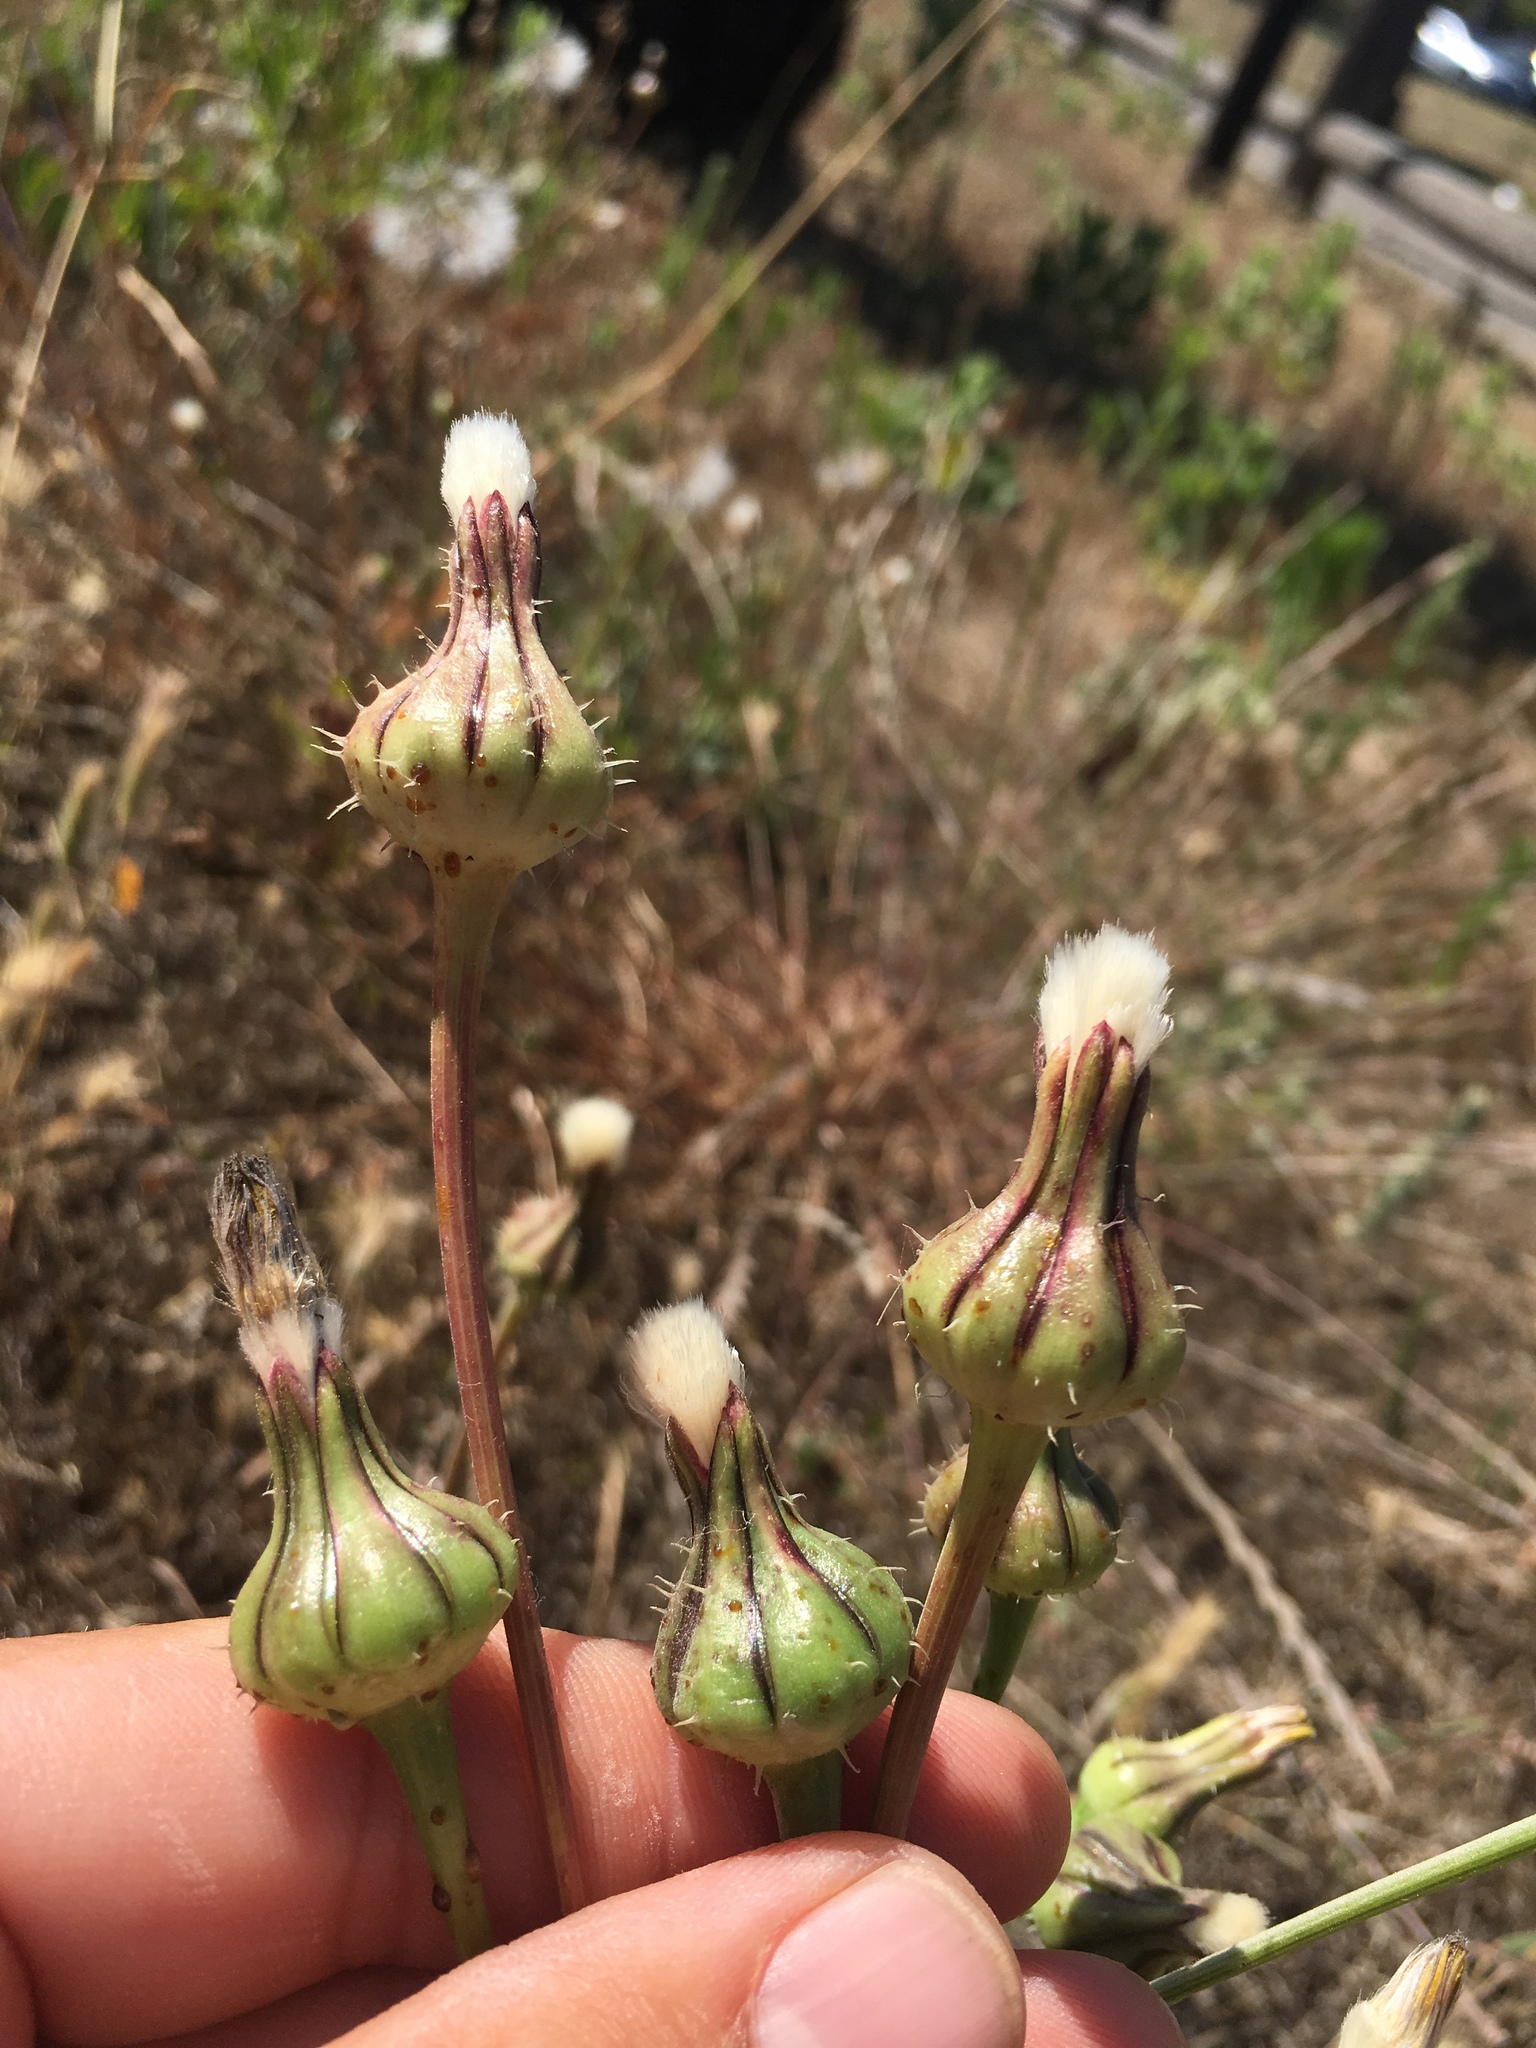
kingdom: Plantae
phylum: Tracheophyta
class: Magnoliopsida
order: Asterales
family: Asteraceae
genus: Urospermum
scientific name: Urospermum picroides
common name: False hawkbit
